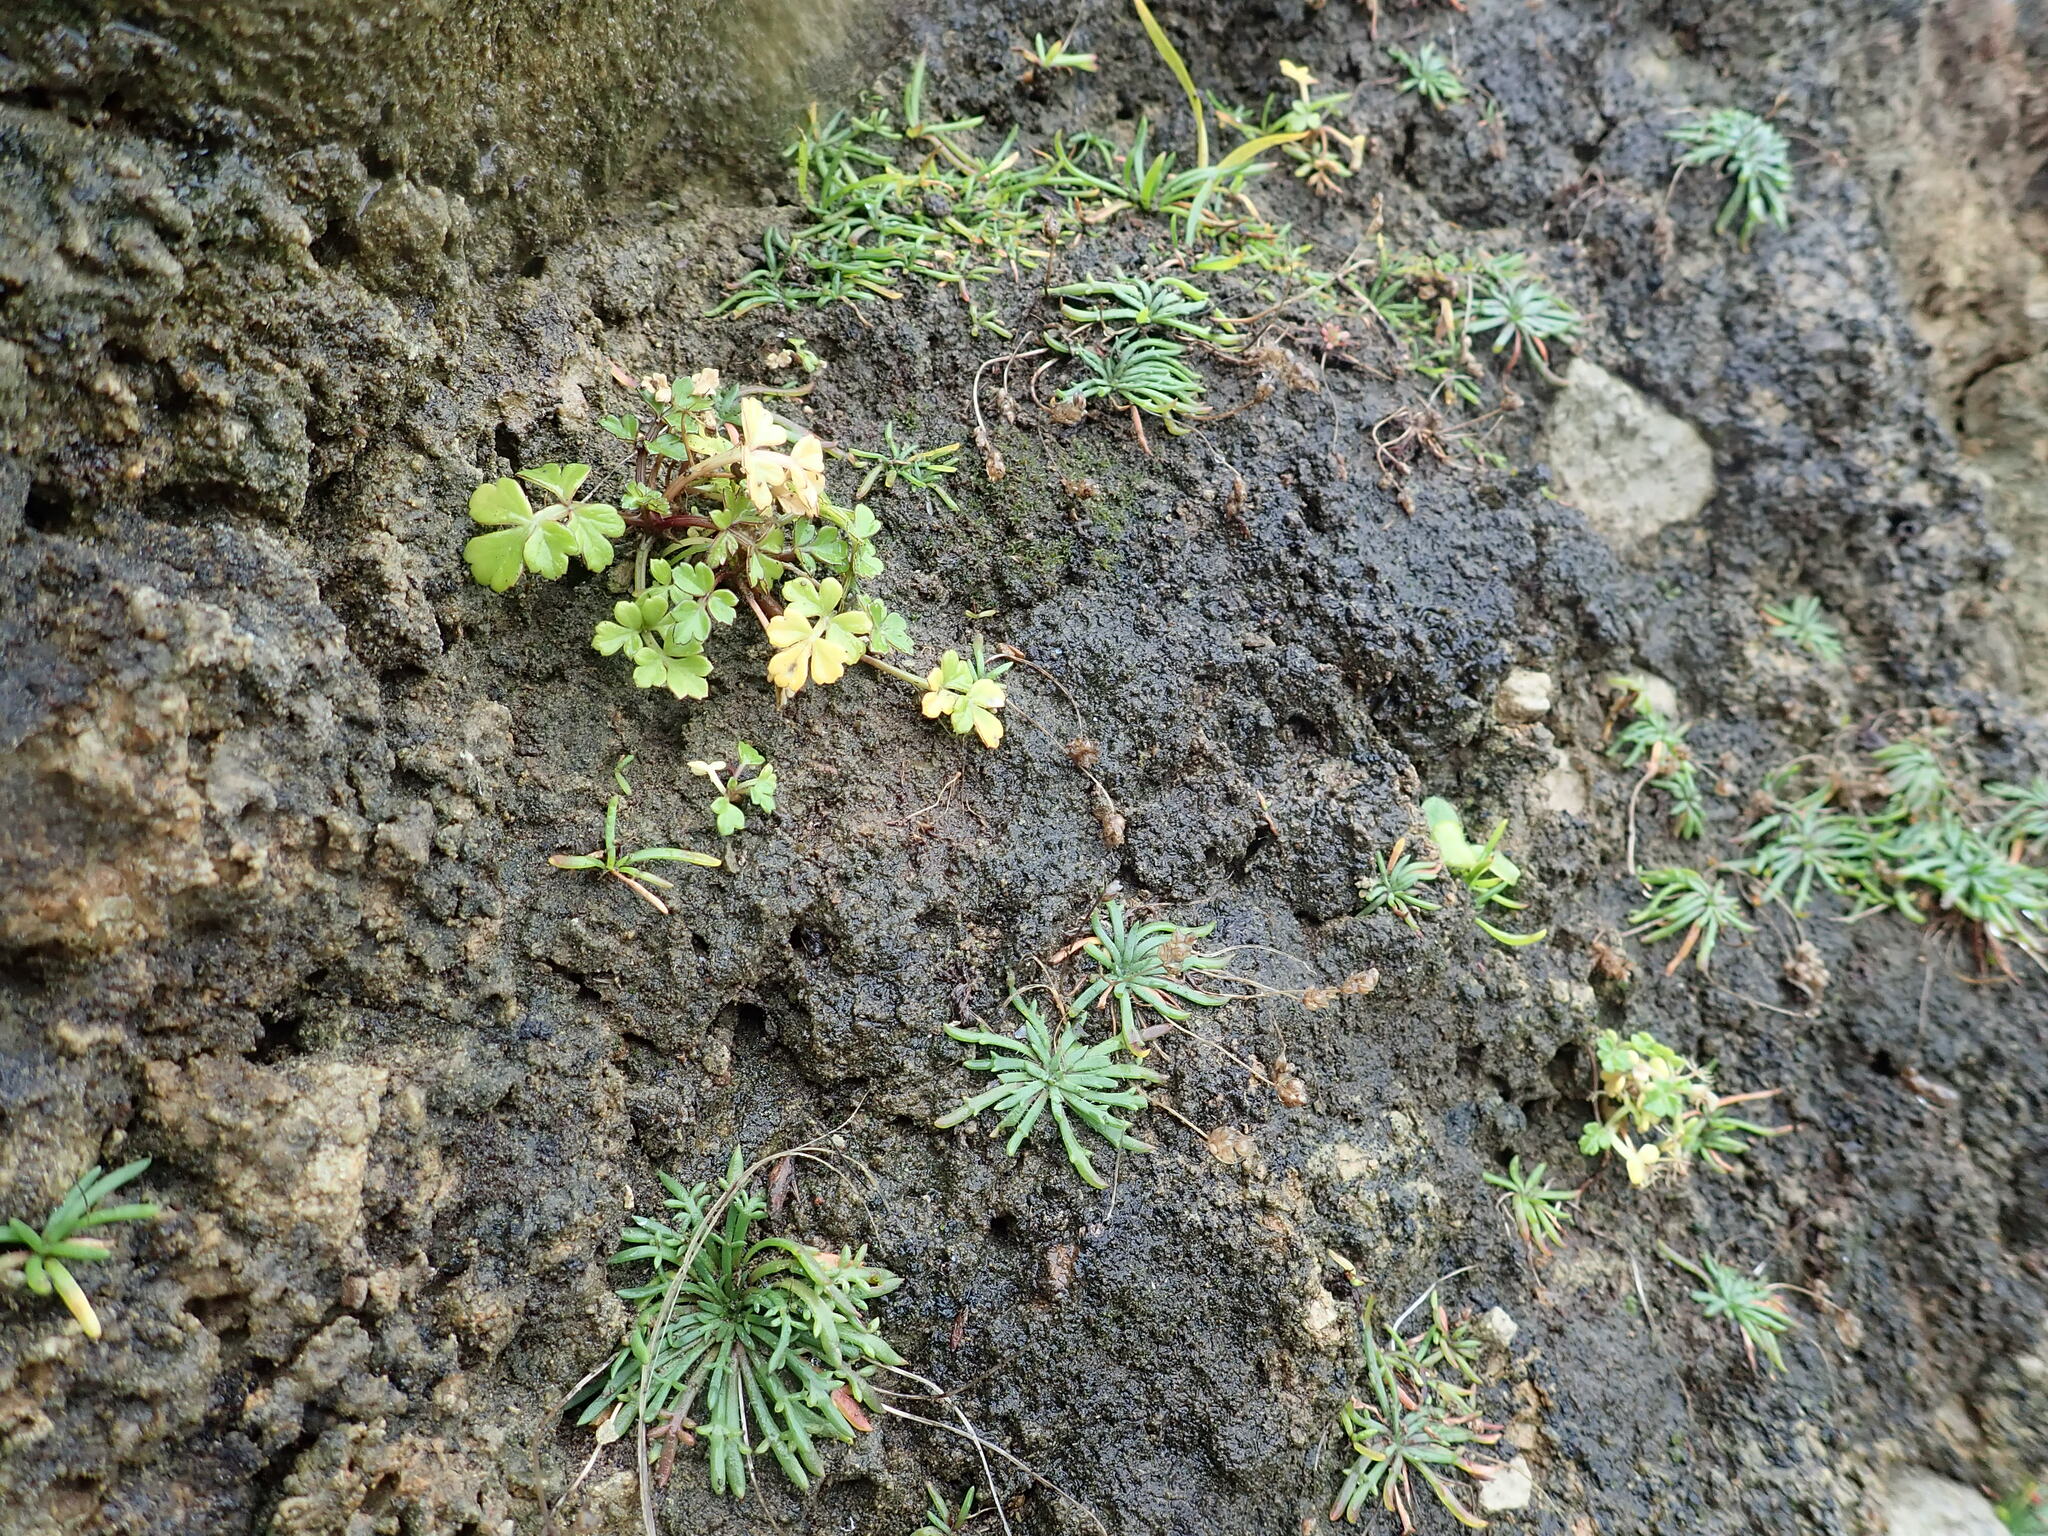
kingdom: Plantae
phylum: Tracheophyta
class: Magnoliopsida
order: Apiales
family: Apiaceae
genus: Apium
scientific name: Apium prostratum
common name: Prostrate marshwort
